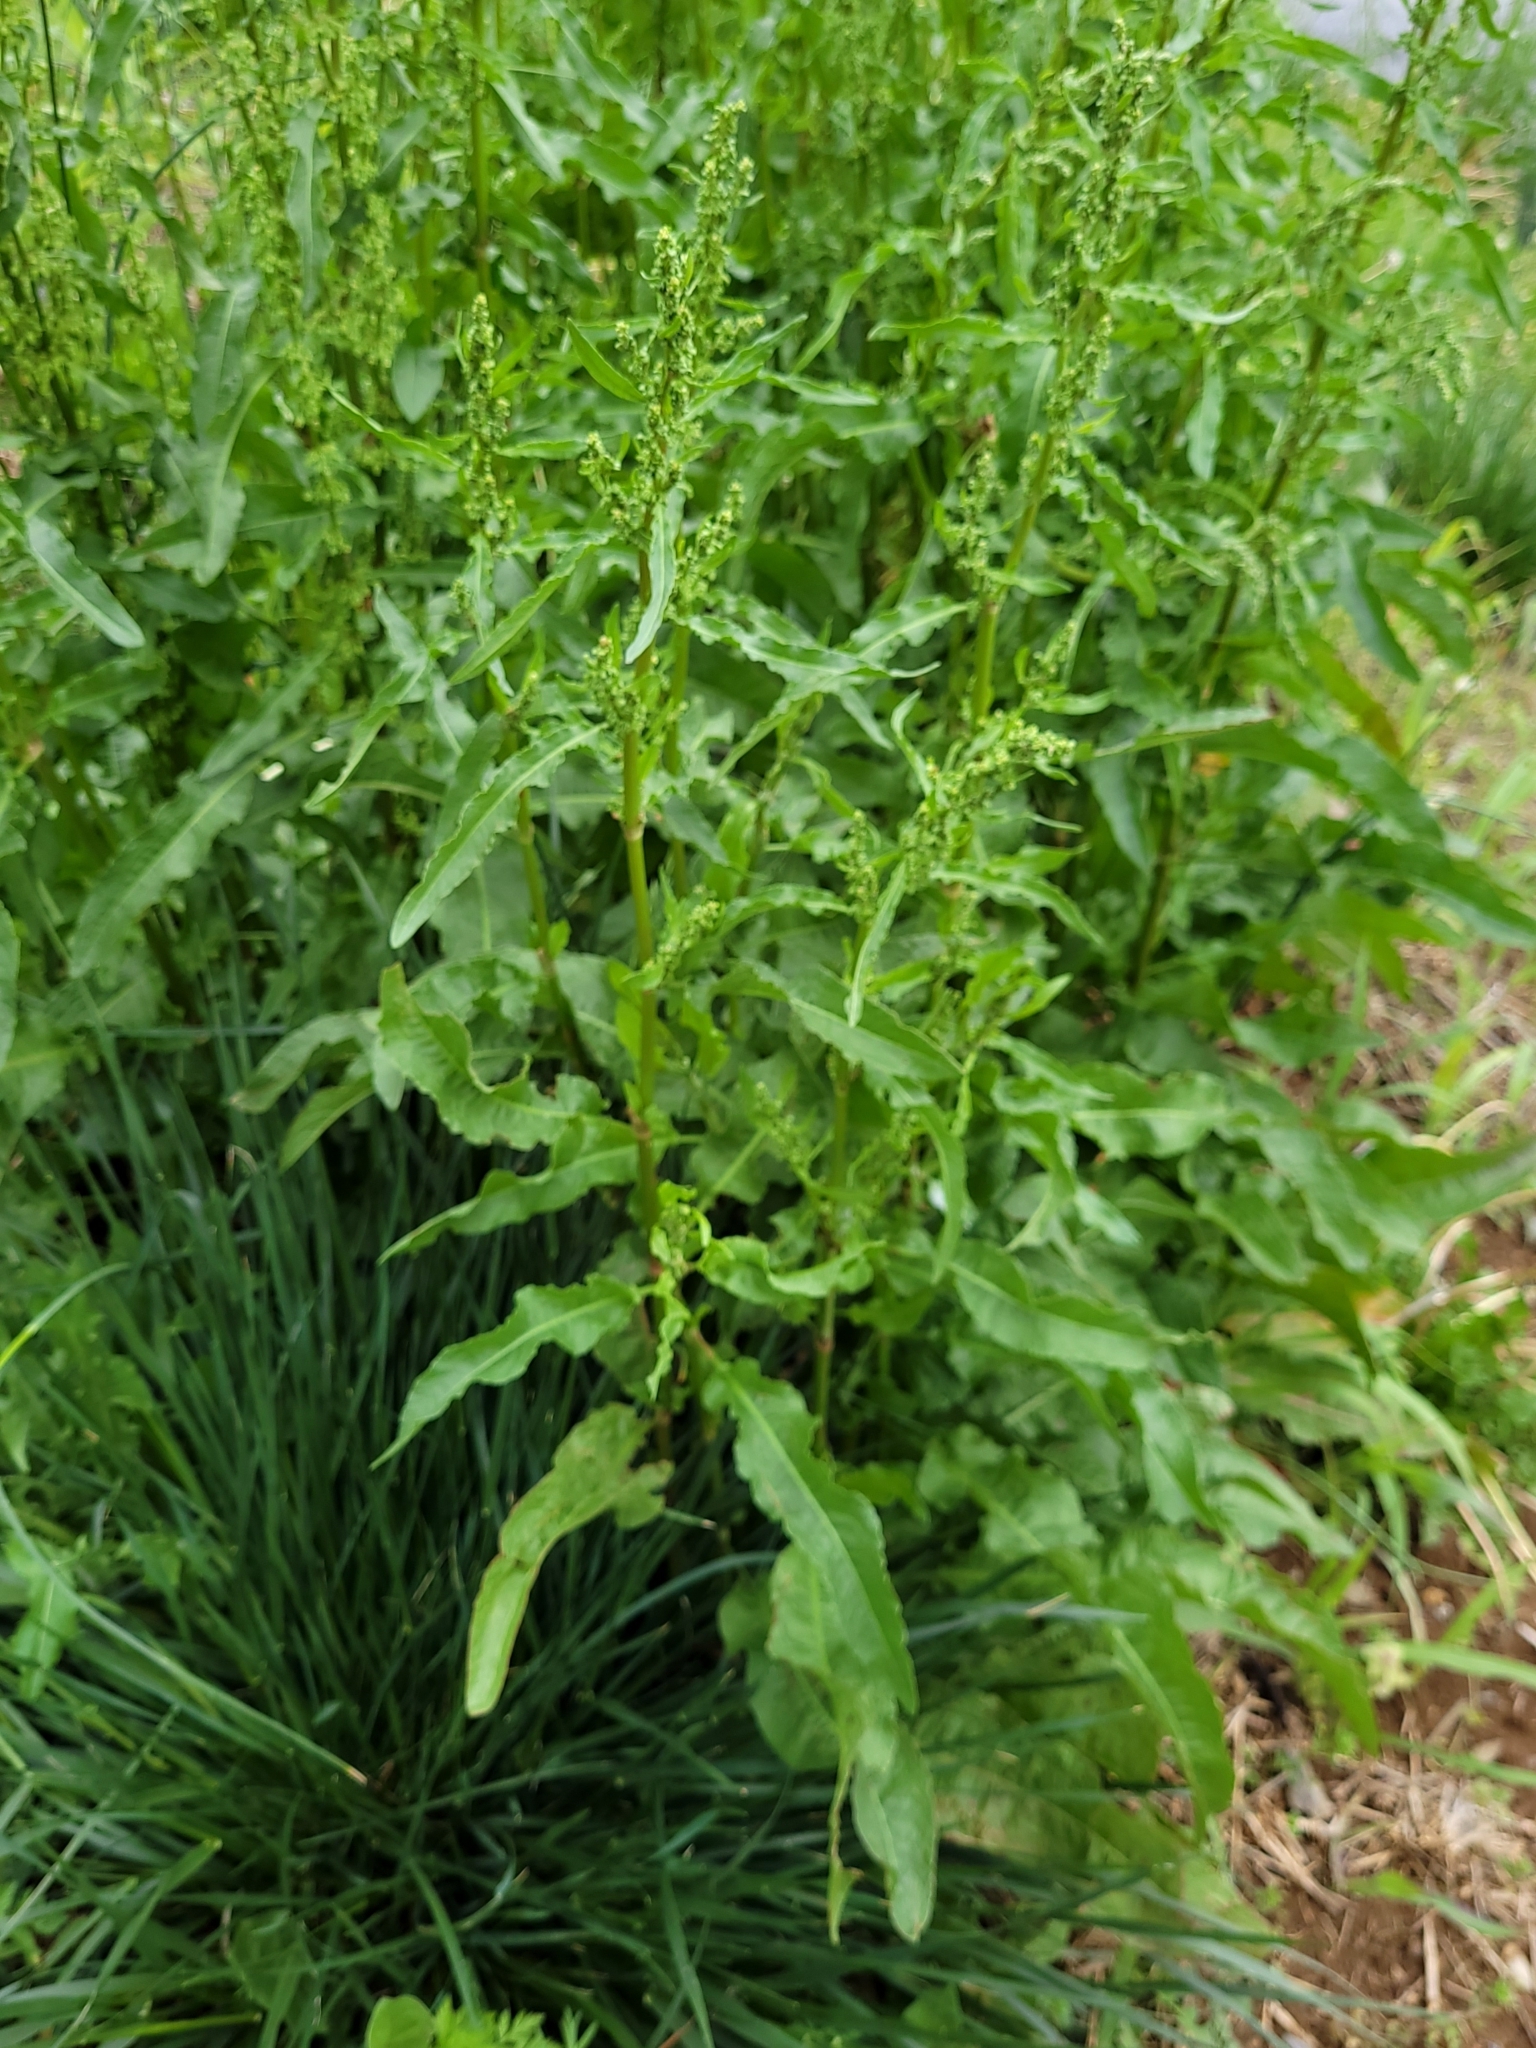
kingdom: Plantae
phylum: Tracheophyta
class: Magnoliopsida
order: Caryophyllales
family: Polygonaceae
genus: Rumex
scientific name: Rumex crispus
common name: Curled dock
